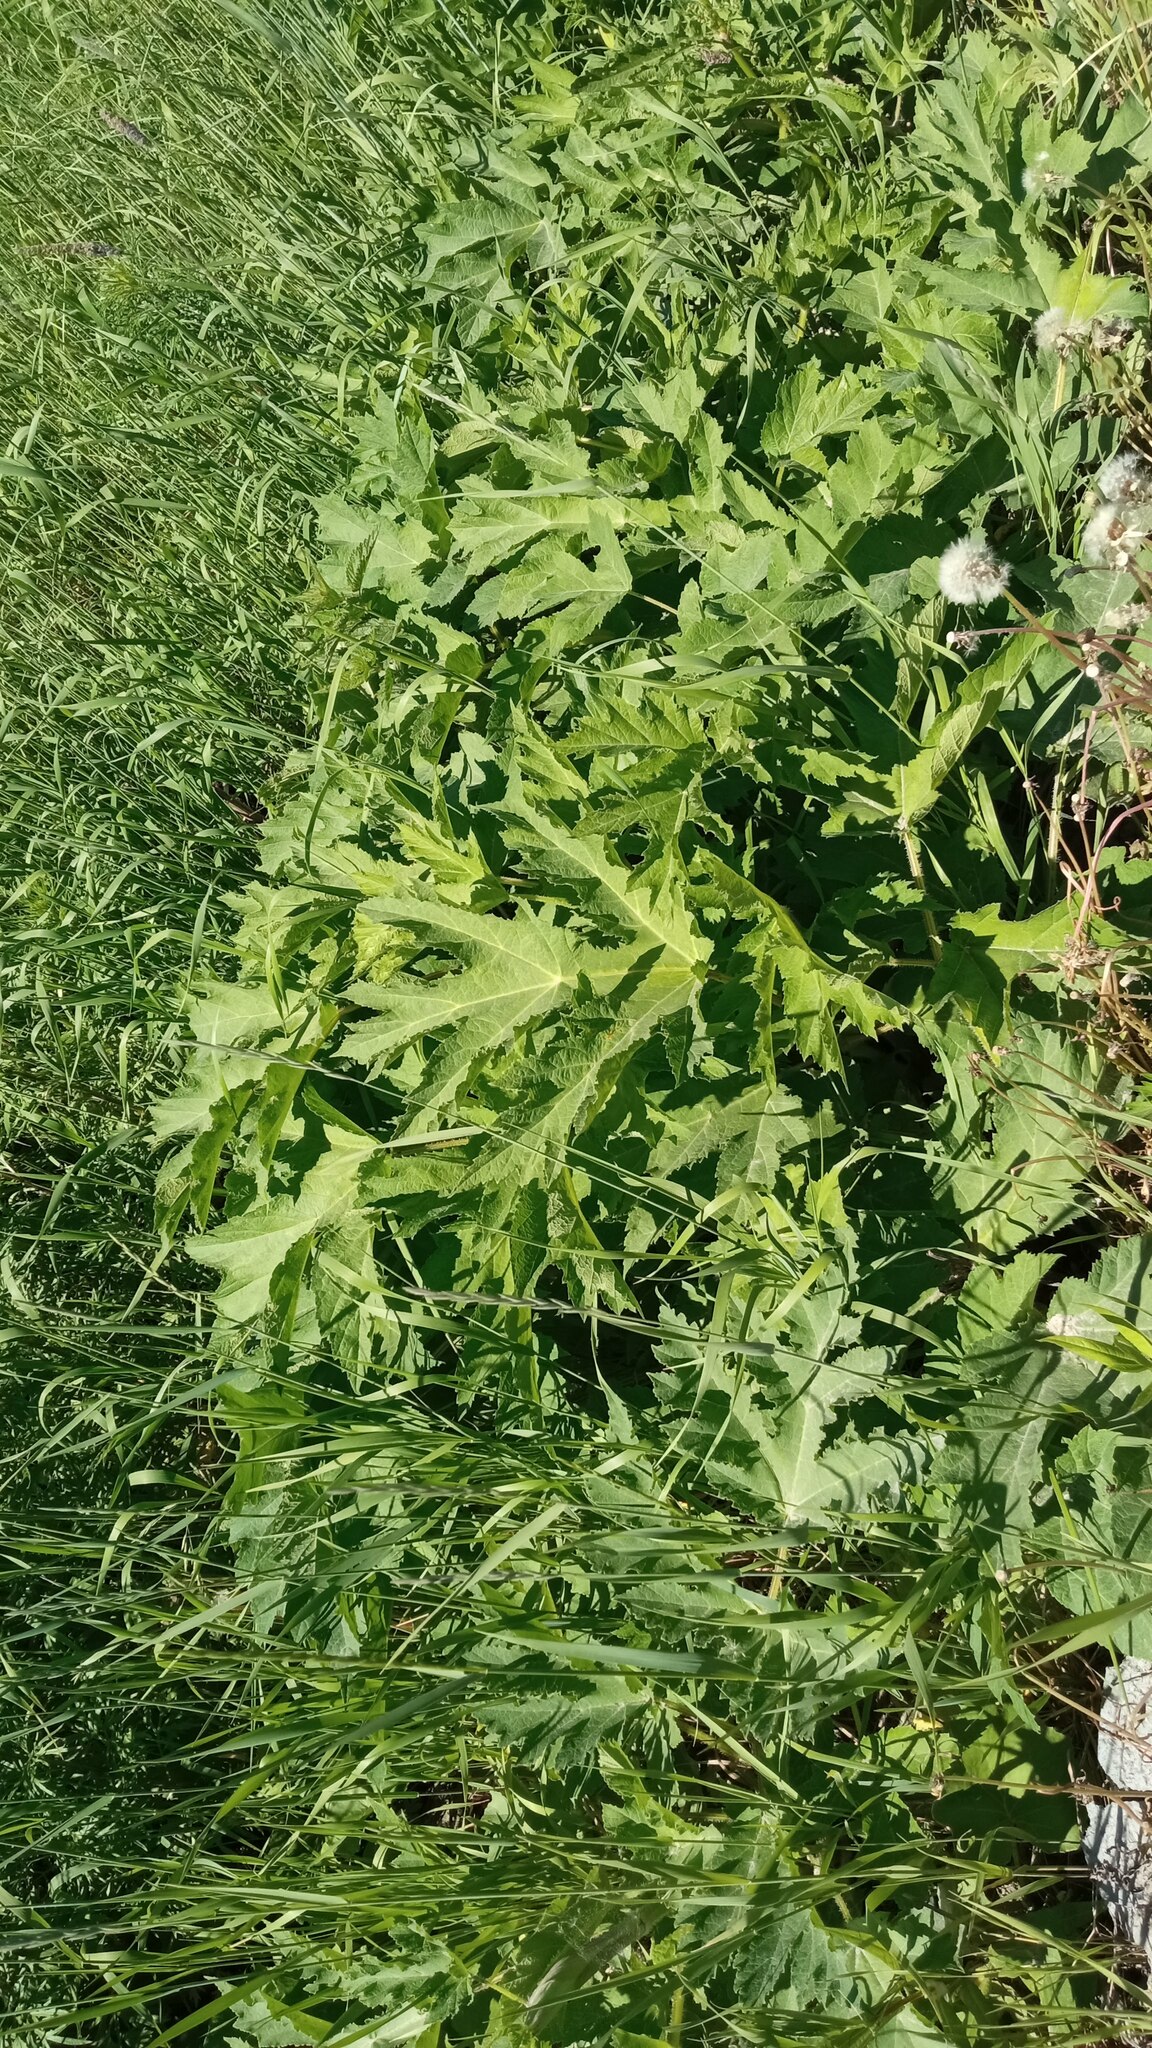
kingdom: Plantae
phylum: Tracheophyta
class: Magnoliopsida
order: Apiales
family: Apiaceae
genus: Heracleum
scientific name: Heracleum sphondylium
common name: Hogweed
